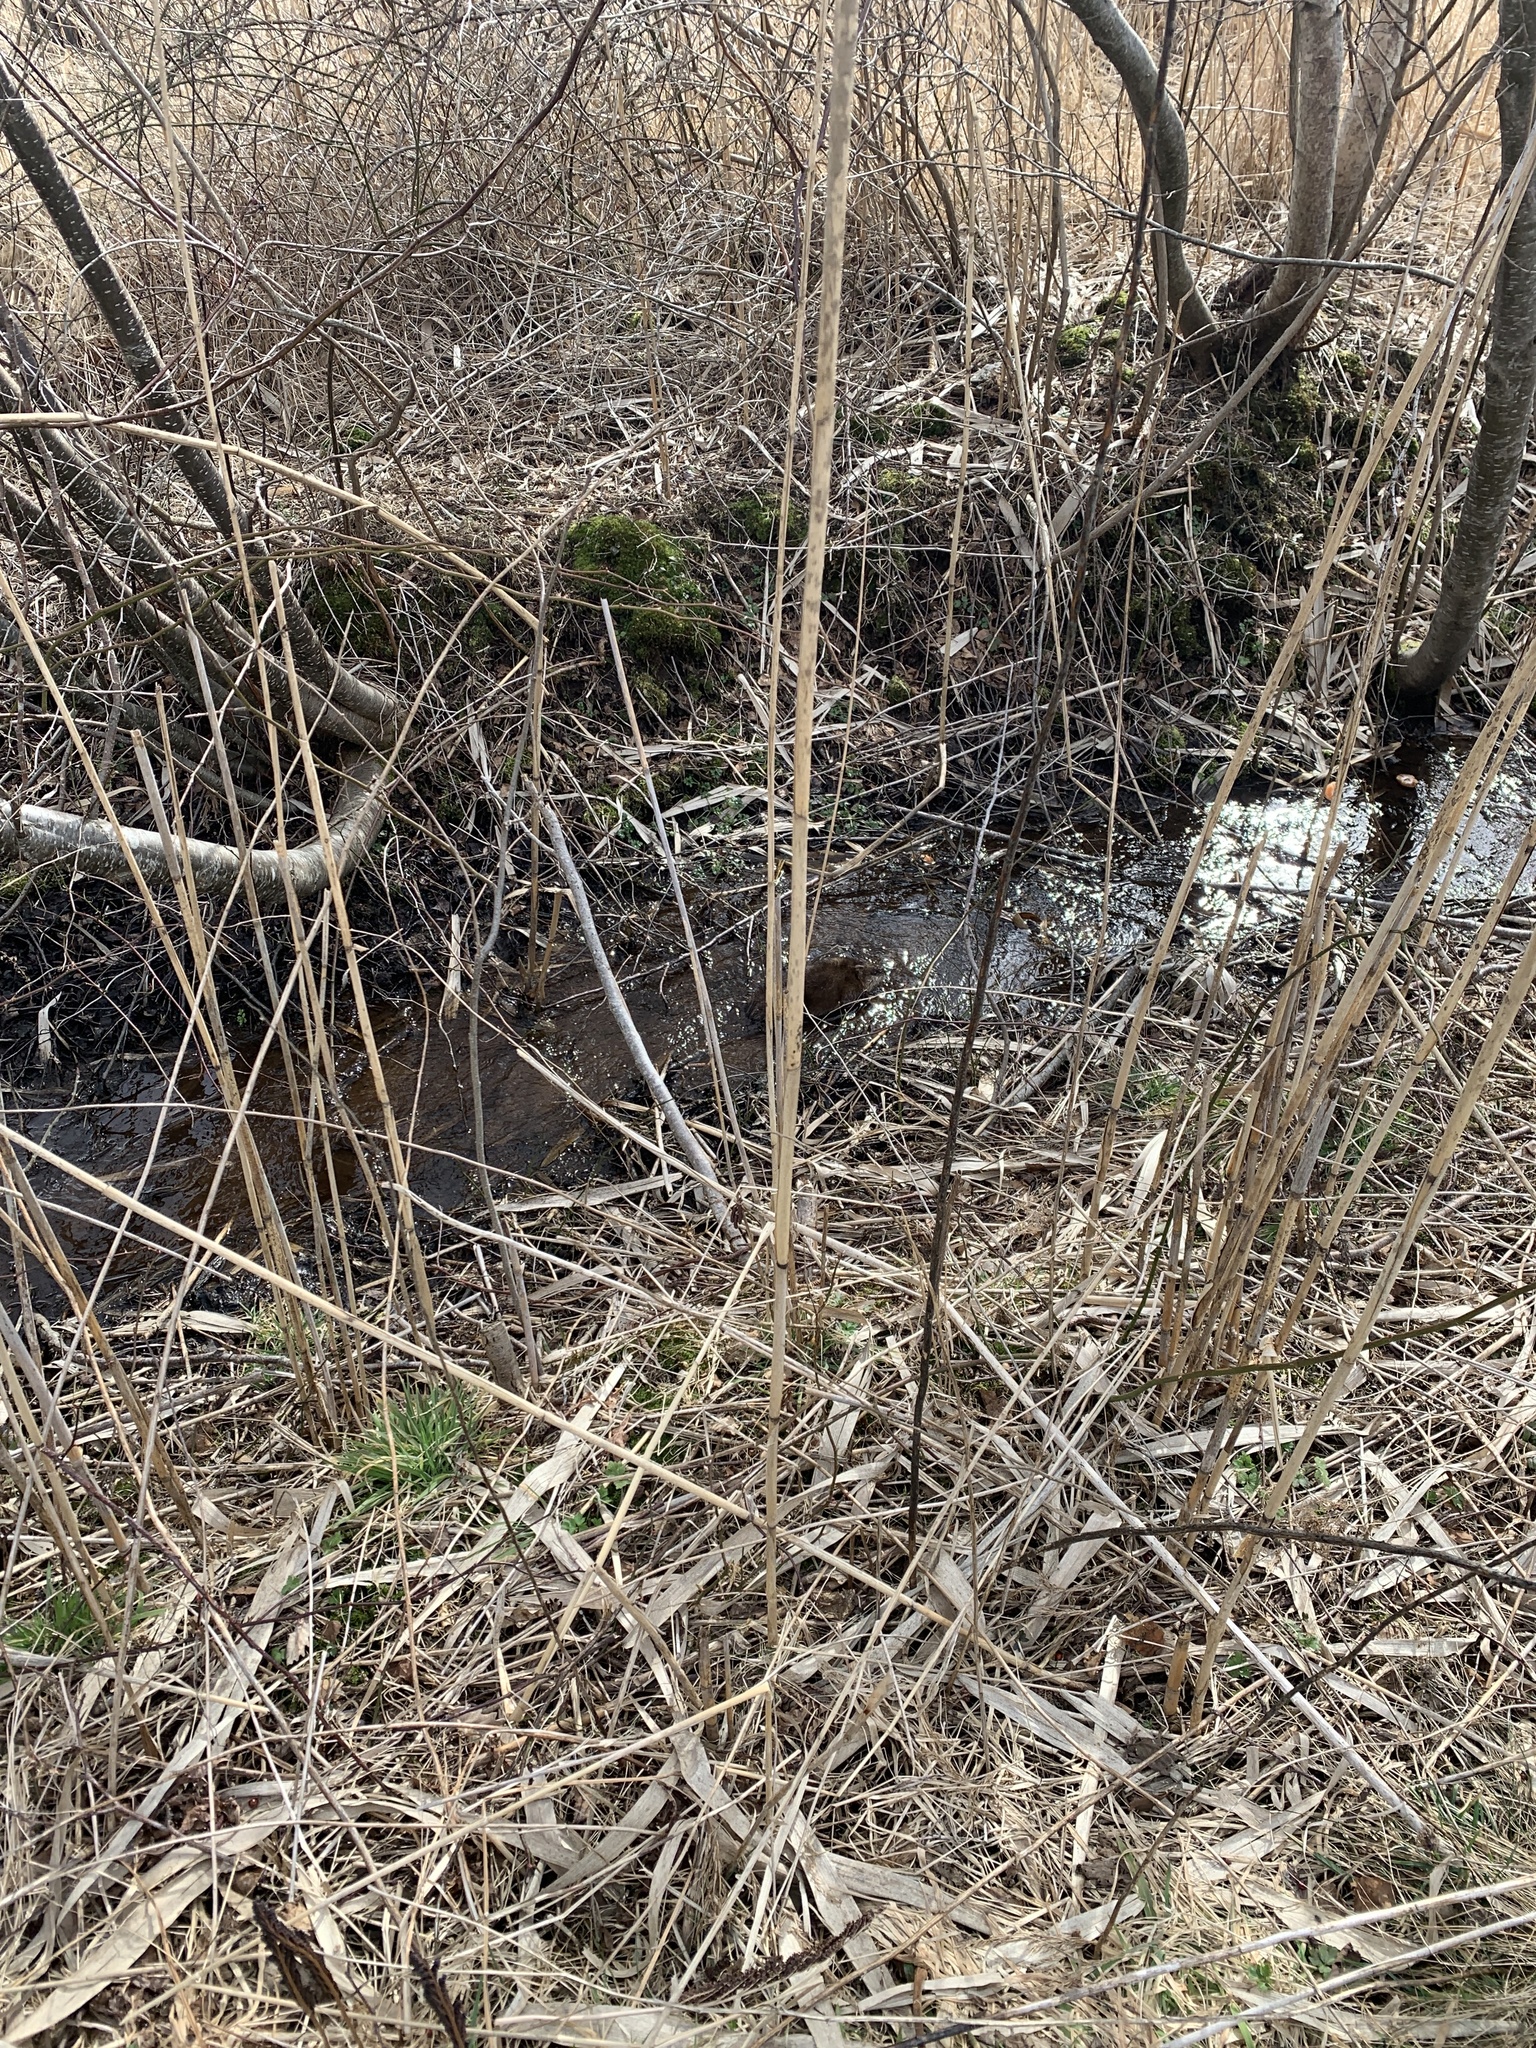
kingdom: Animalia
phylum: Chordata
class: Mammalia
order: Rodentia
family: Cricetidae
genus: Ondatra
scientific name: Ondatra zibethicus
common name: Muskrat
